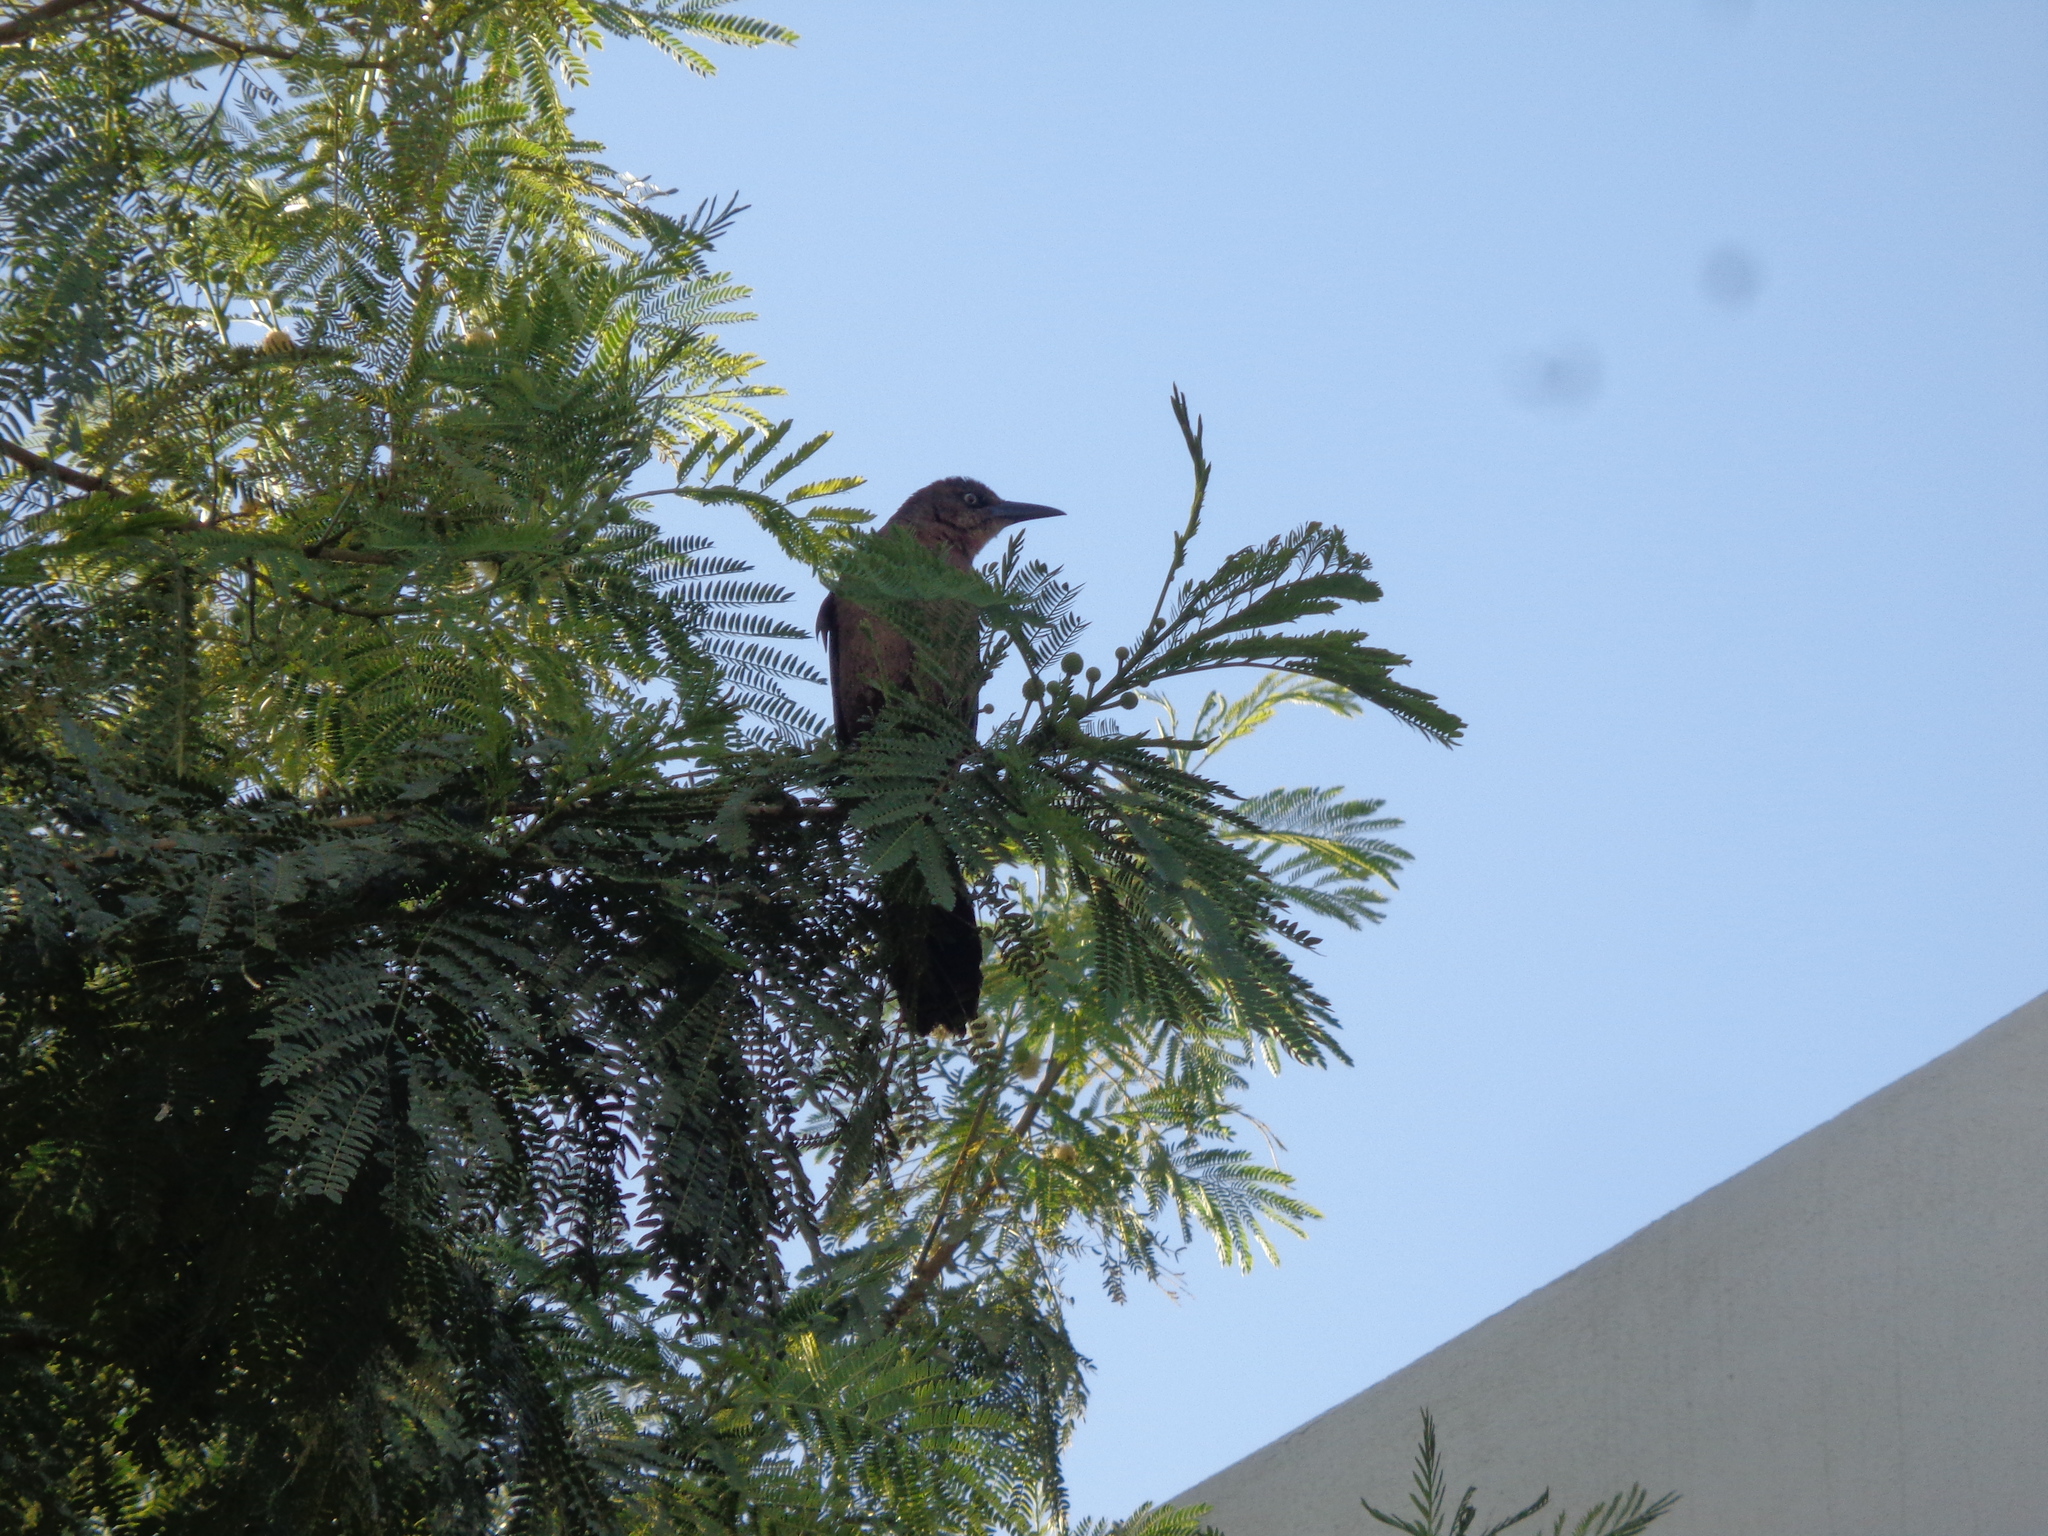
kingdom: Animalia
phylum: Chordata
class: Aves
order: Passeriformes
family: Icteridae
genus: Quiscalus
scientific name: Quiscalus mexicanus
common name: Great-tailed grackle
